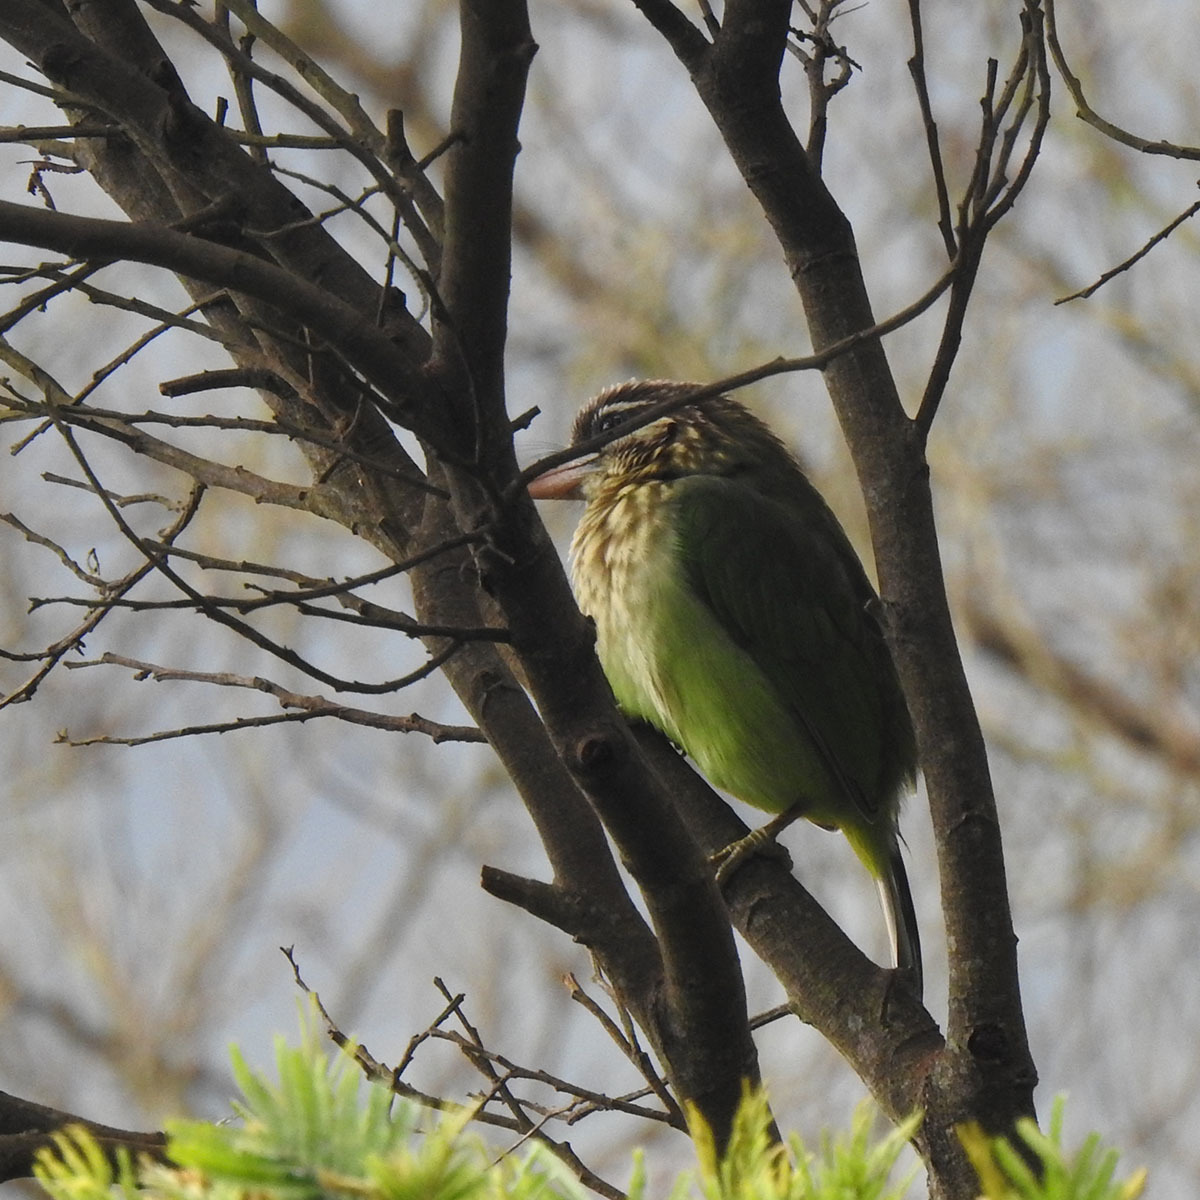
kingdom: Animalia
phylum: Chordata
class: Aves
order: Piciformes
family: Megalaimidae
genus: Psilopogon
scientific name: Psilopogon viridis
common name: White-cheeked barbet
